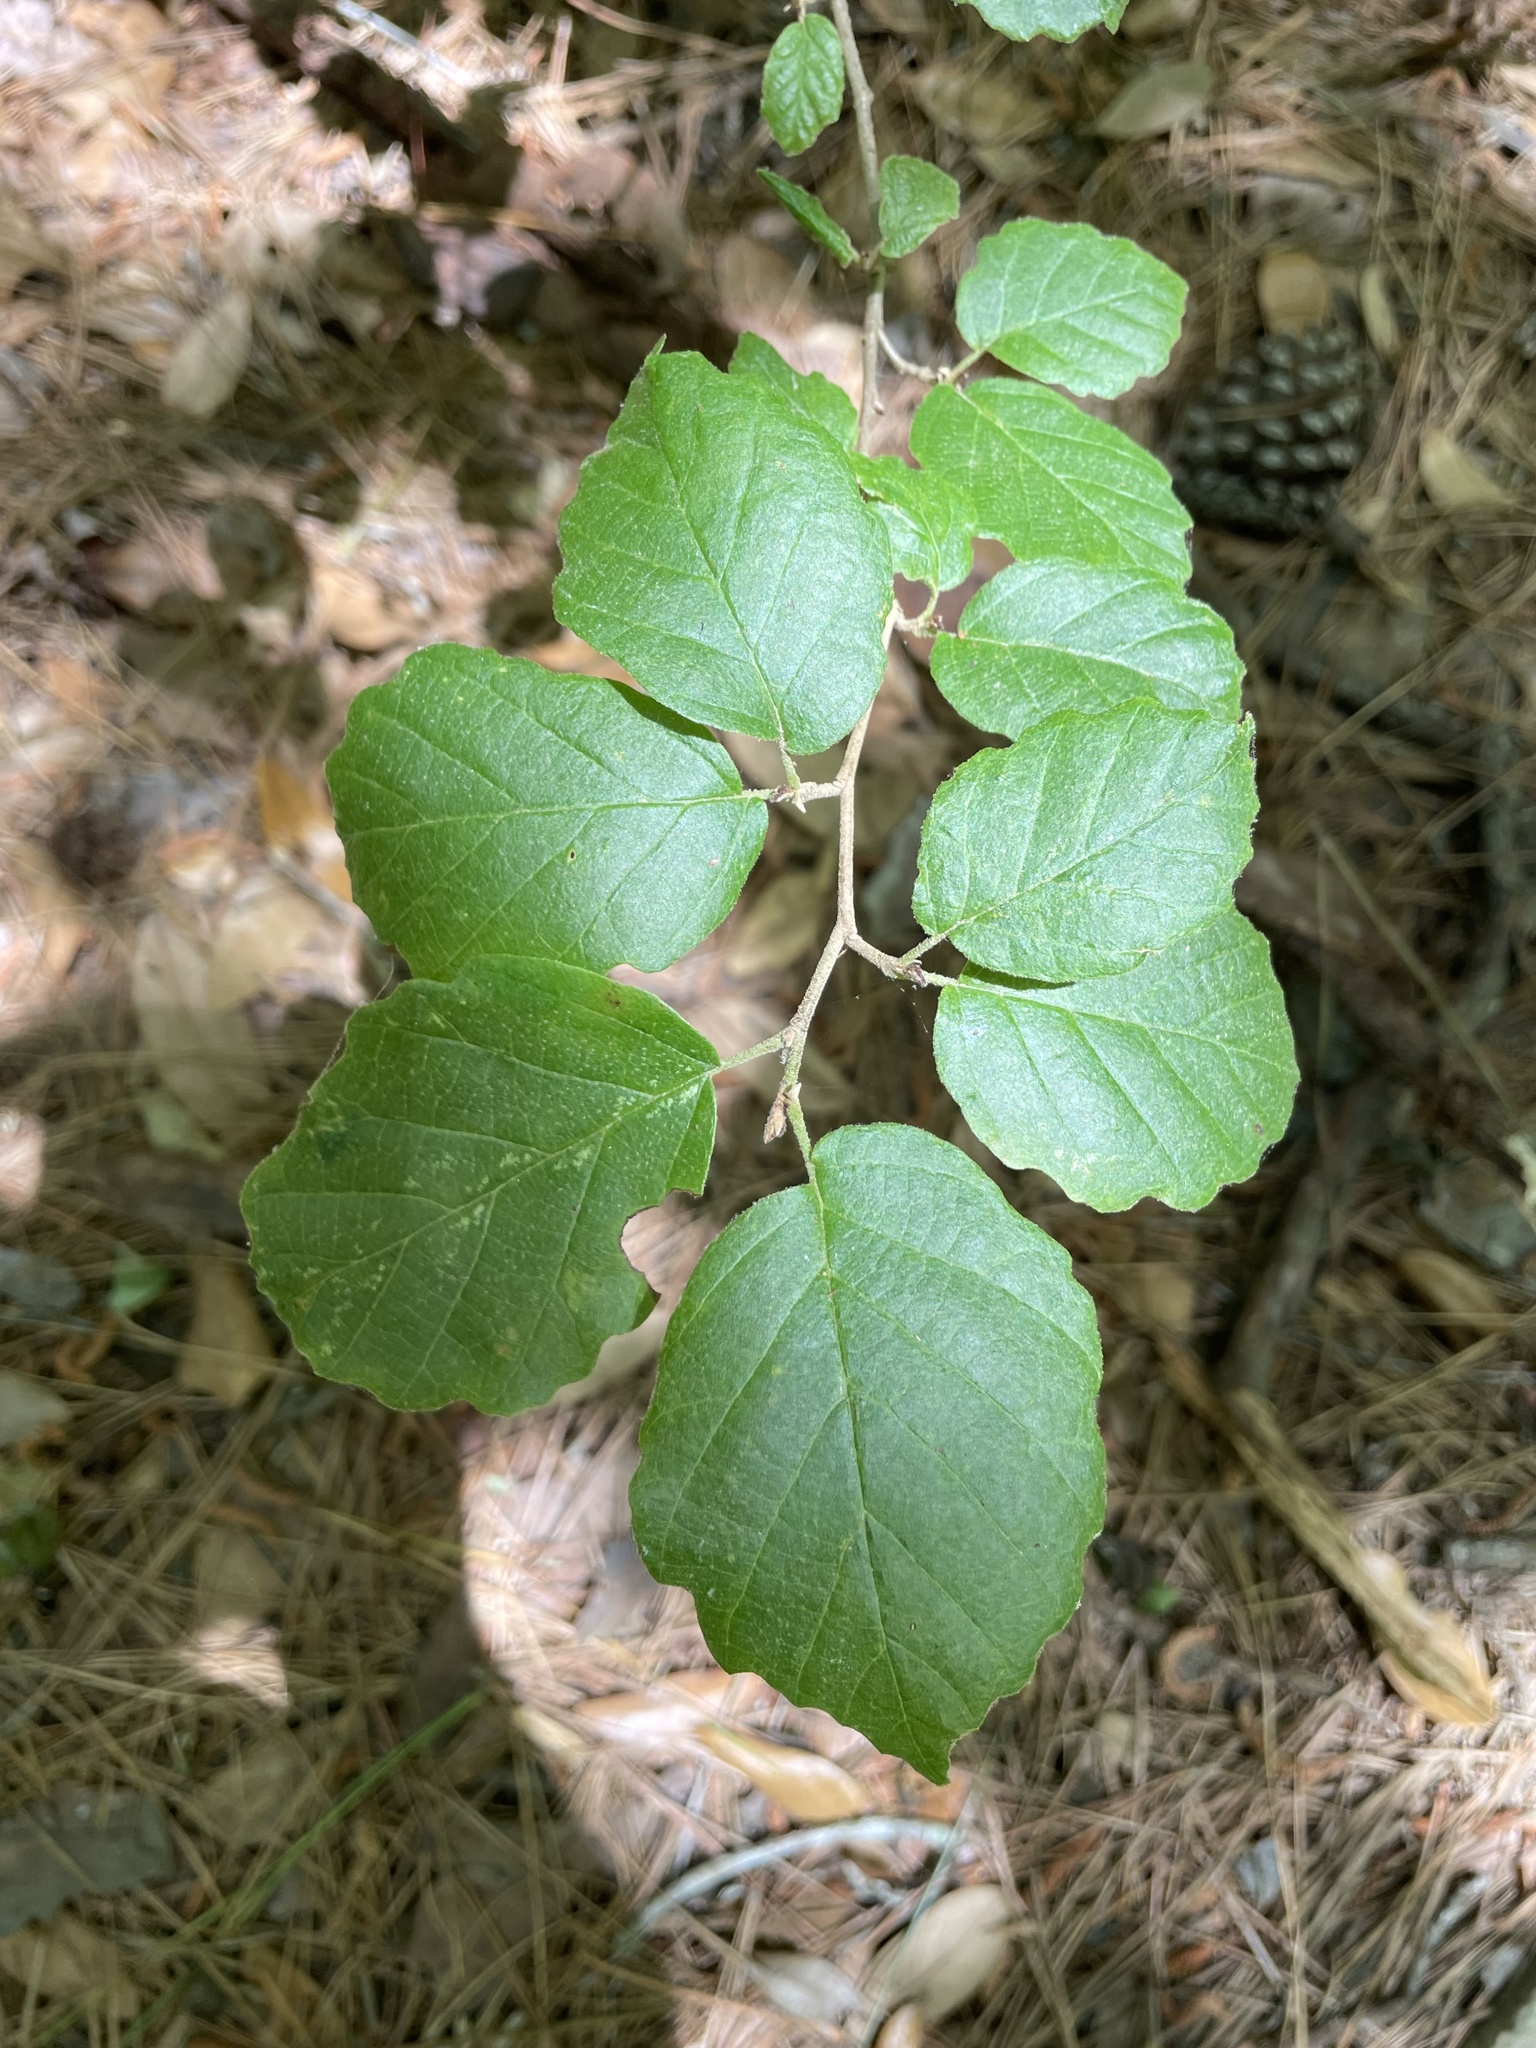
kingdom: Plantae
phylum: Tracheophyta
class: Magnoliopsida
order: Saxifragales
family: Hamamelidaceae
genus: Hamamelis
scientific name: Hamamelis virginiana
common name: Witch-hazel
